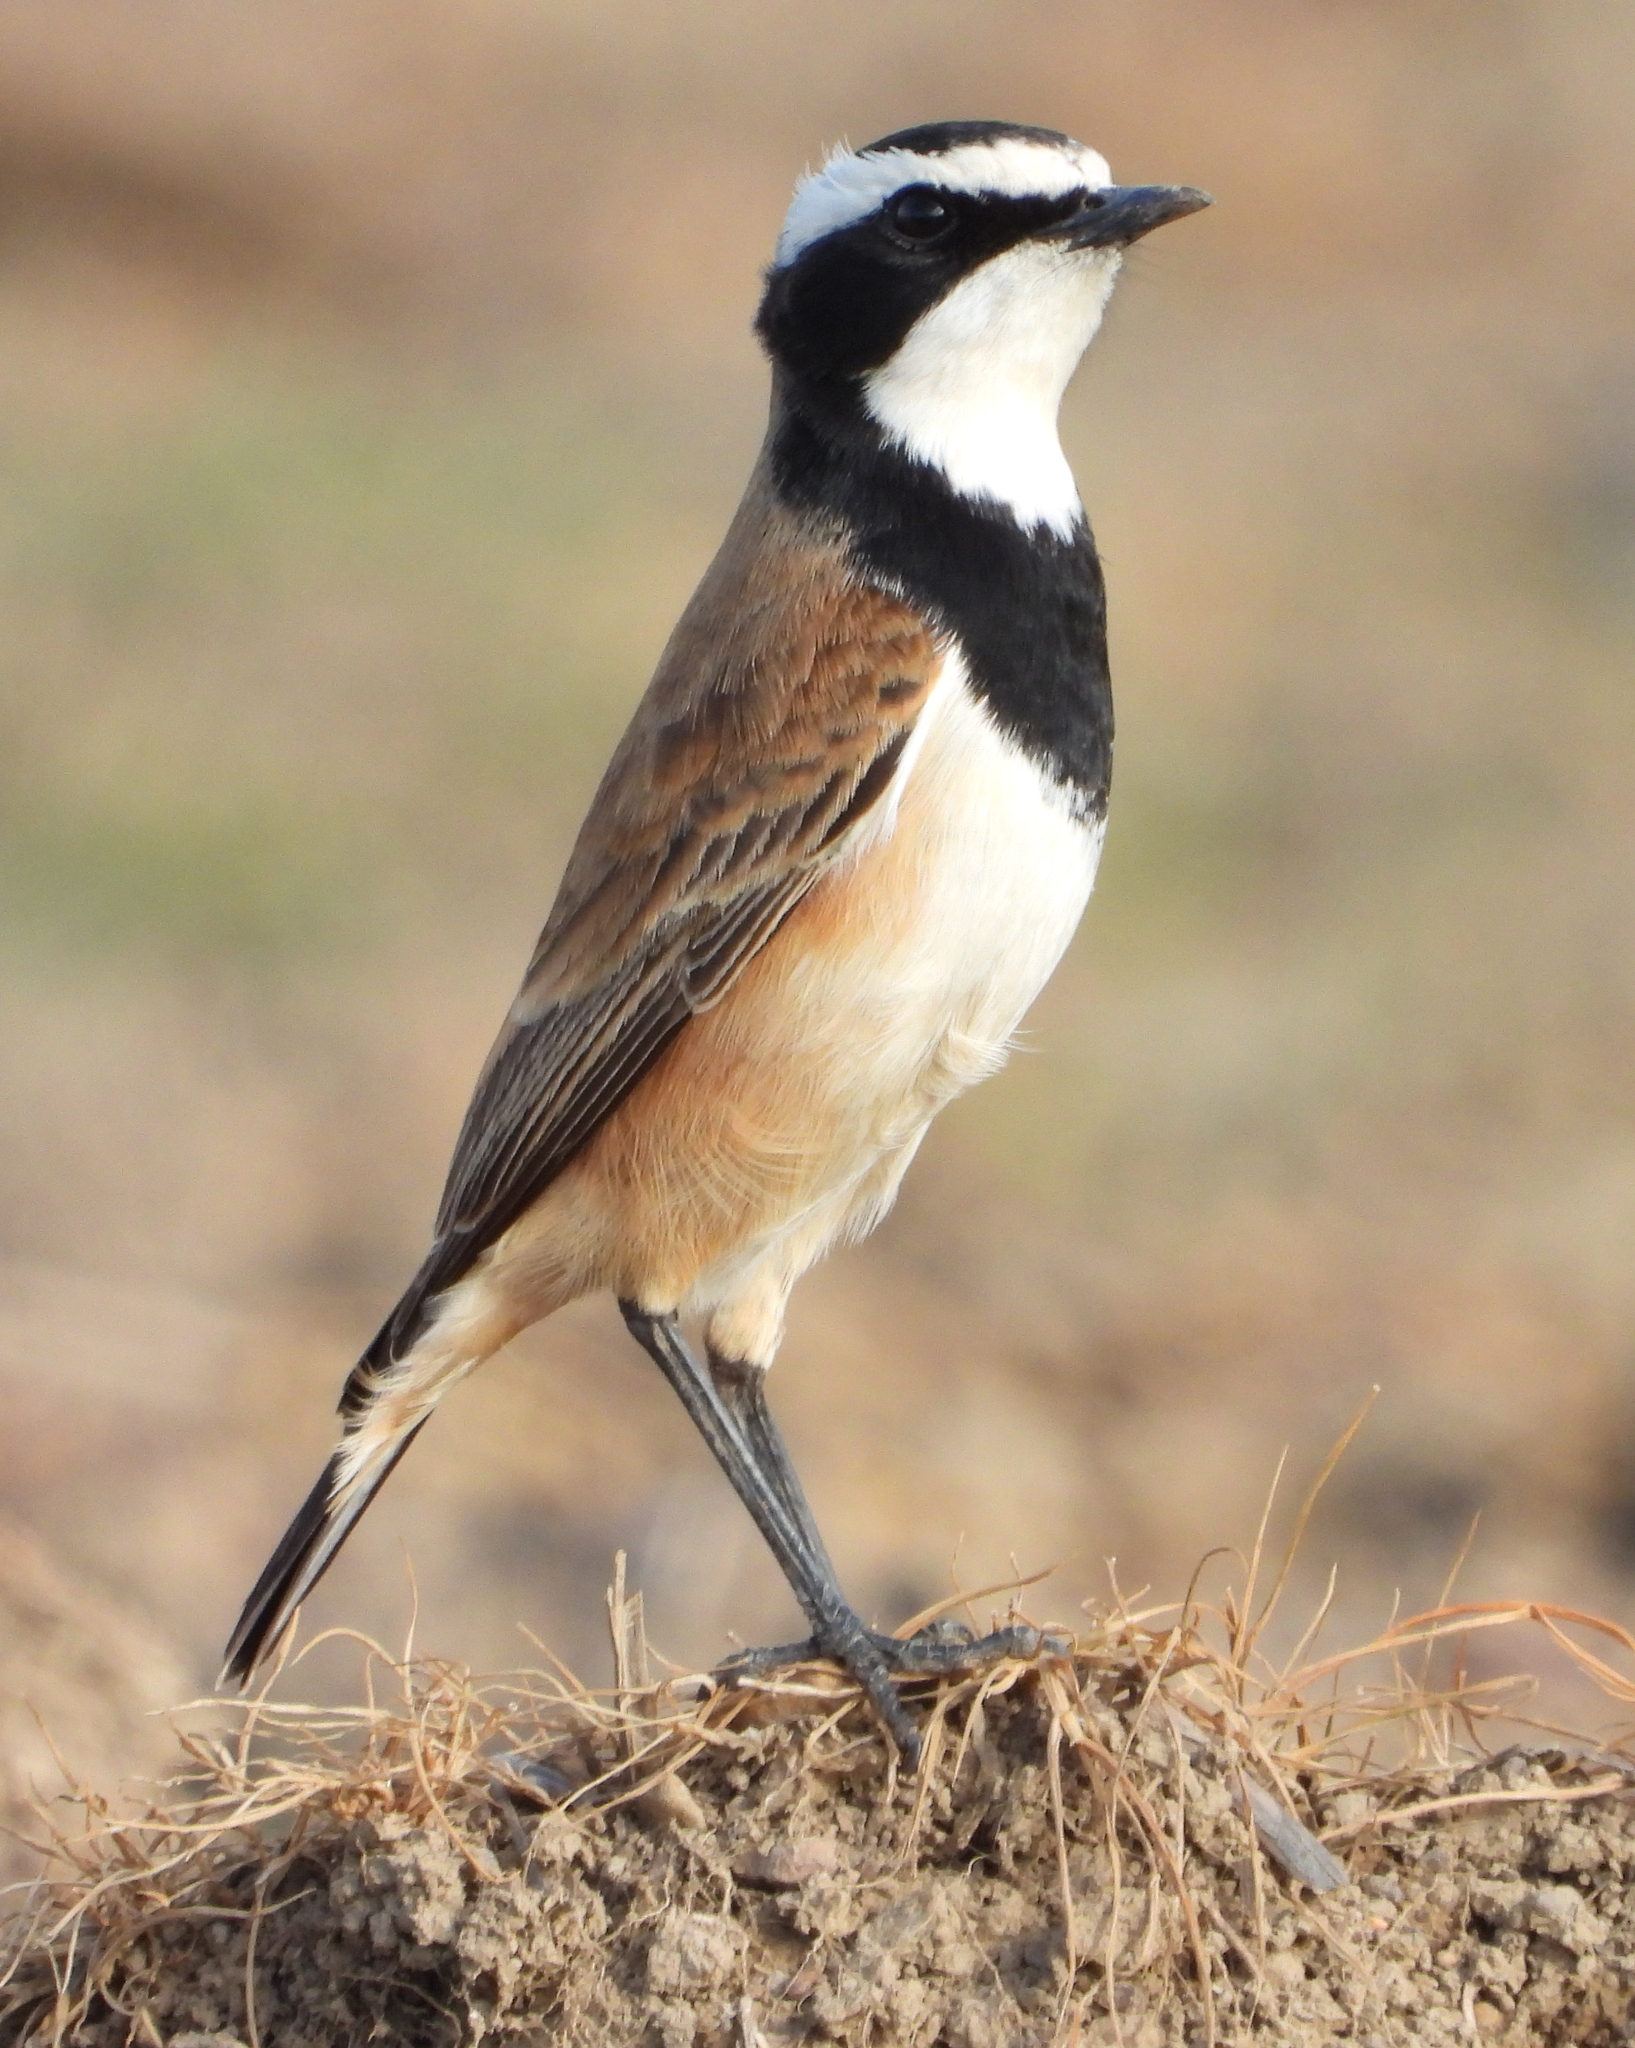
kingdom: Animalia
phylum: Chordata
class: Aves
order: Passeriformes
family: Muscicapidae
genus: Oenanthe
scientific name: Oenanthe pileata
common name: Capped wheatear
